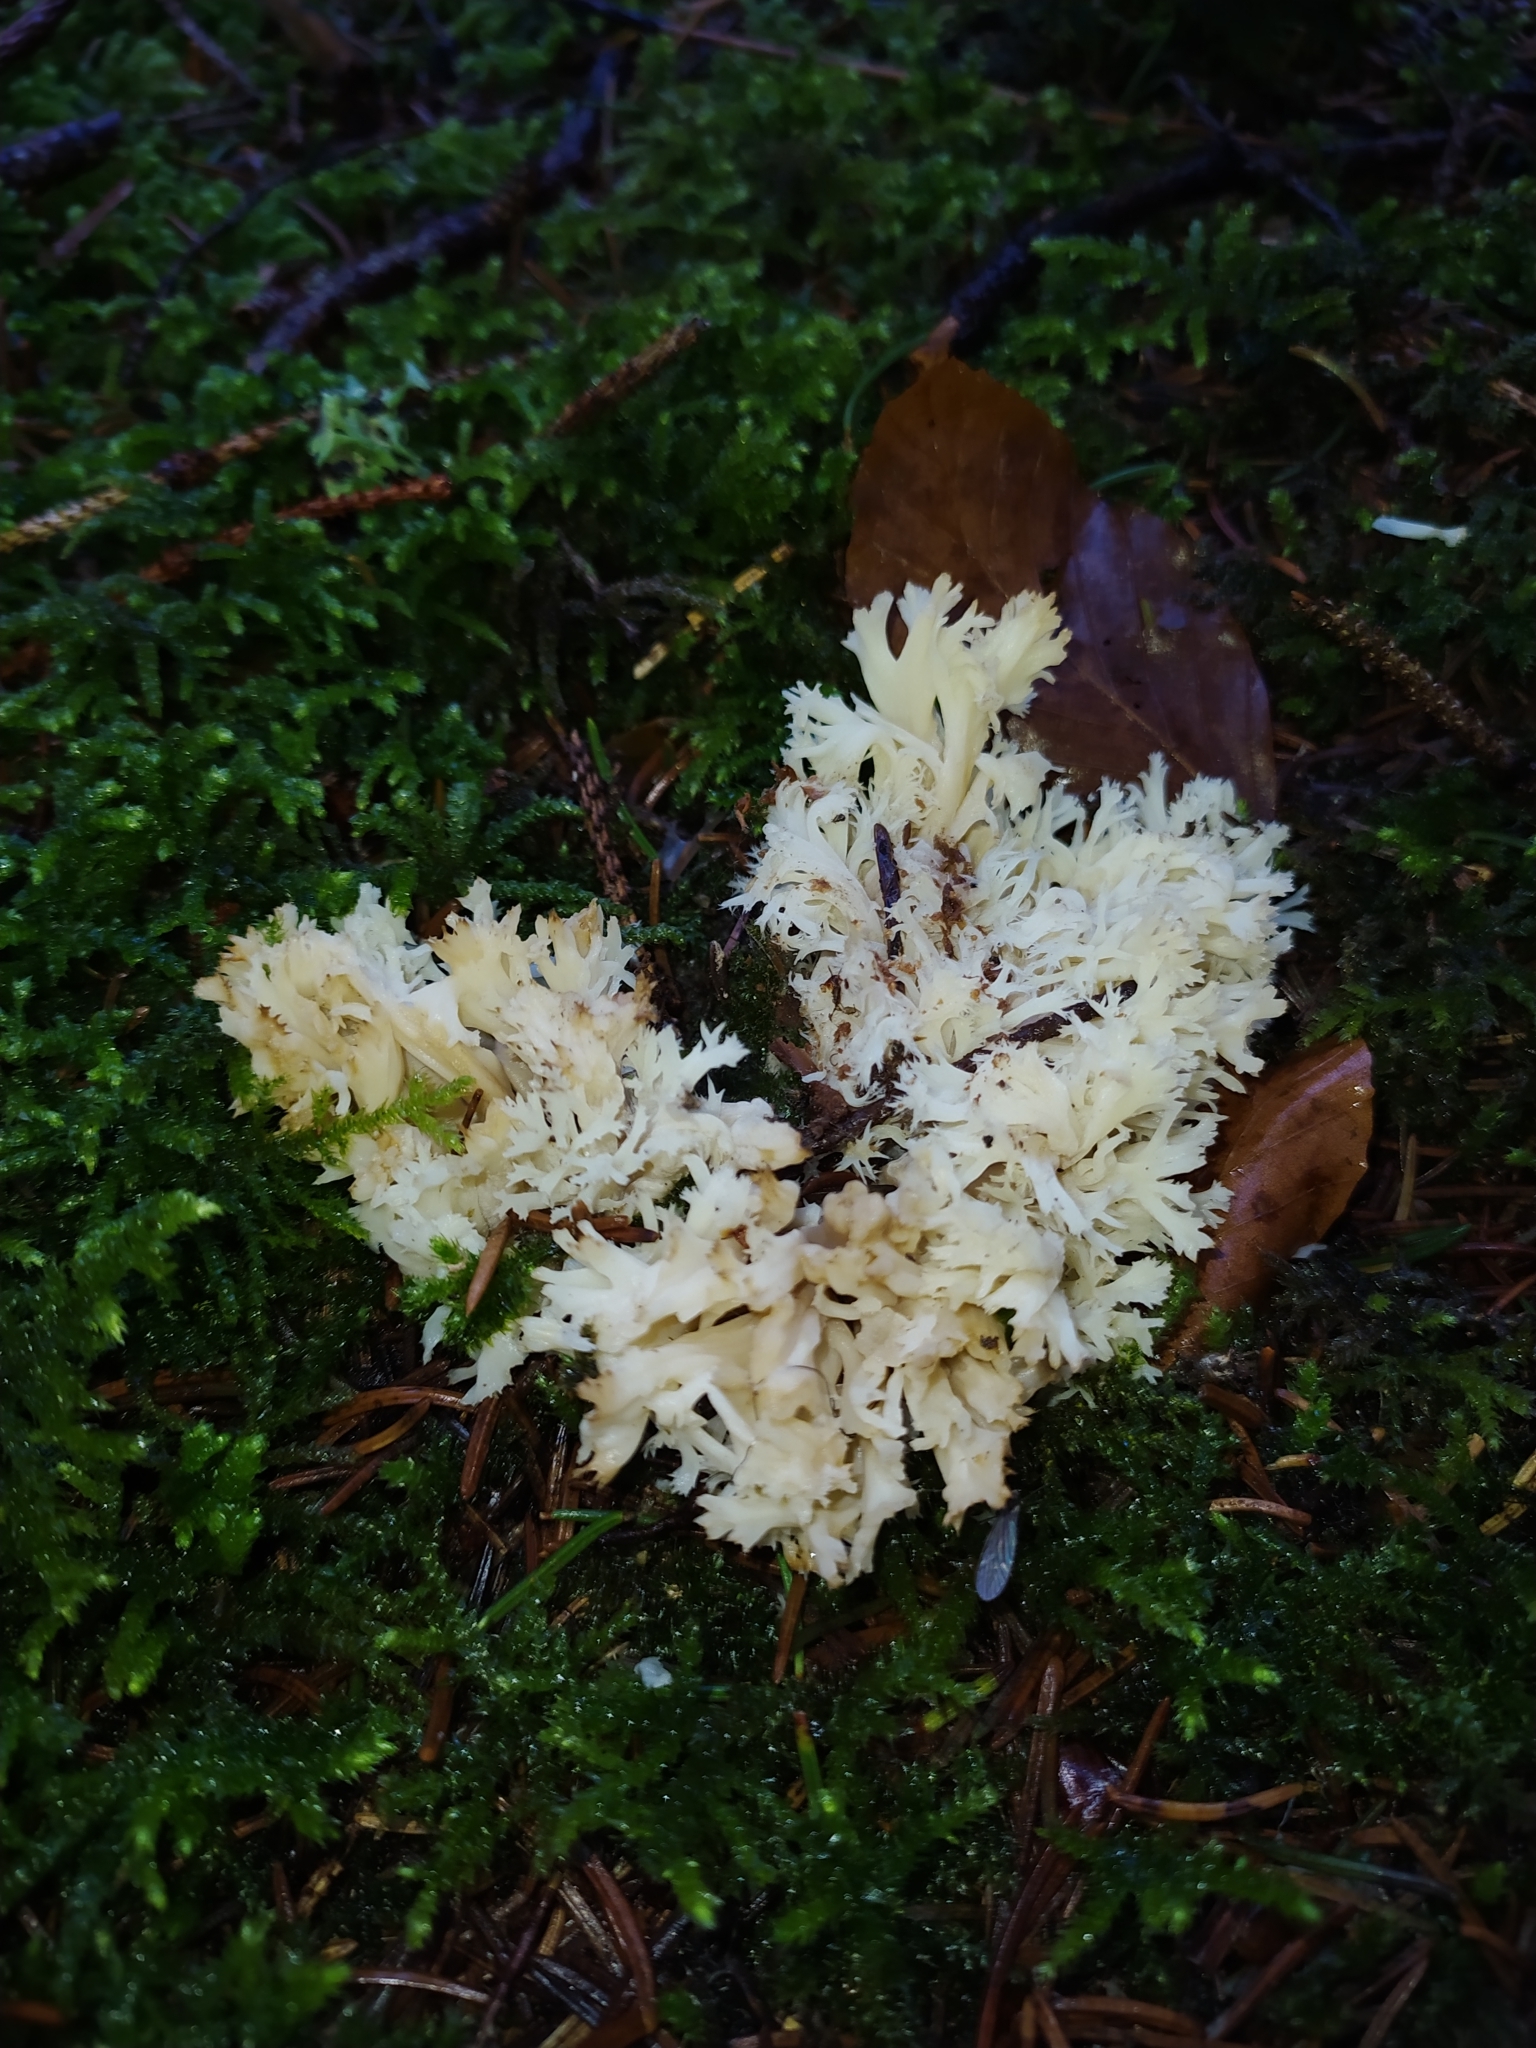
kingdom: Fungi
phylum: Basidiomycota
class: Agaricomycetes
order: Cantharellales
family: Hydnaceae
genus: Clavulina
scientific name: Clavulina coralloides
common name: Crested coral
